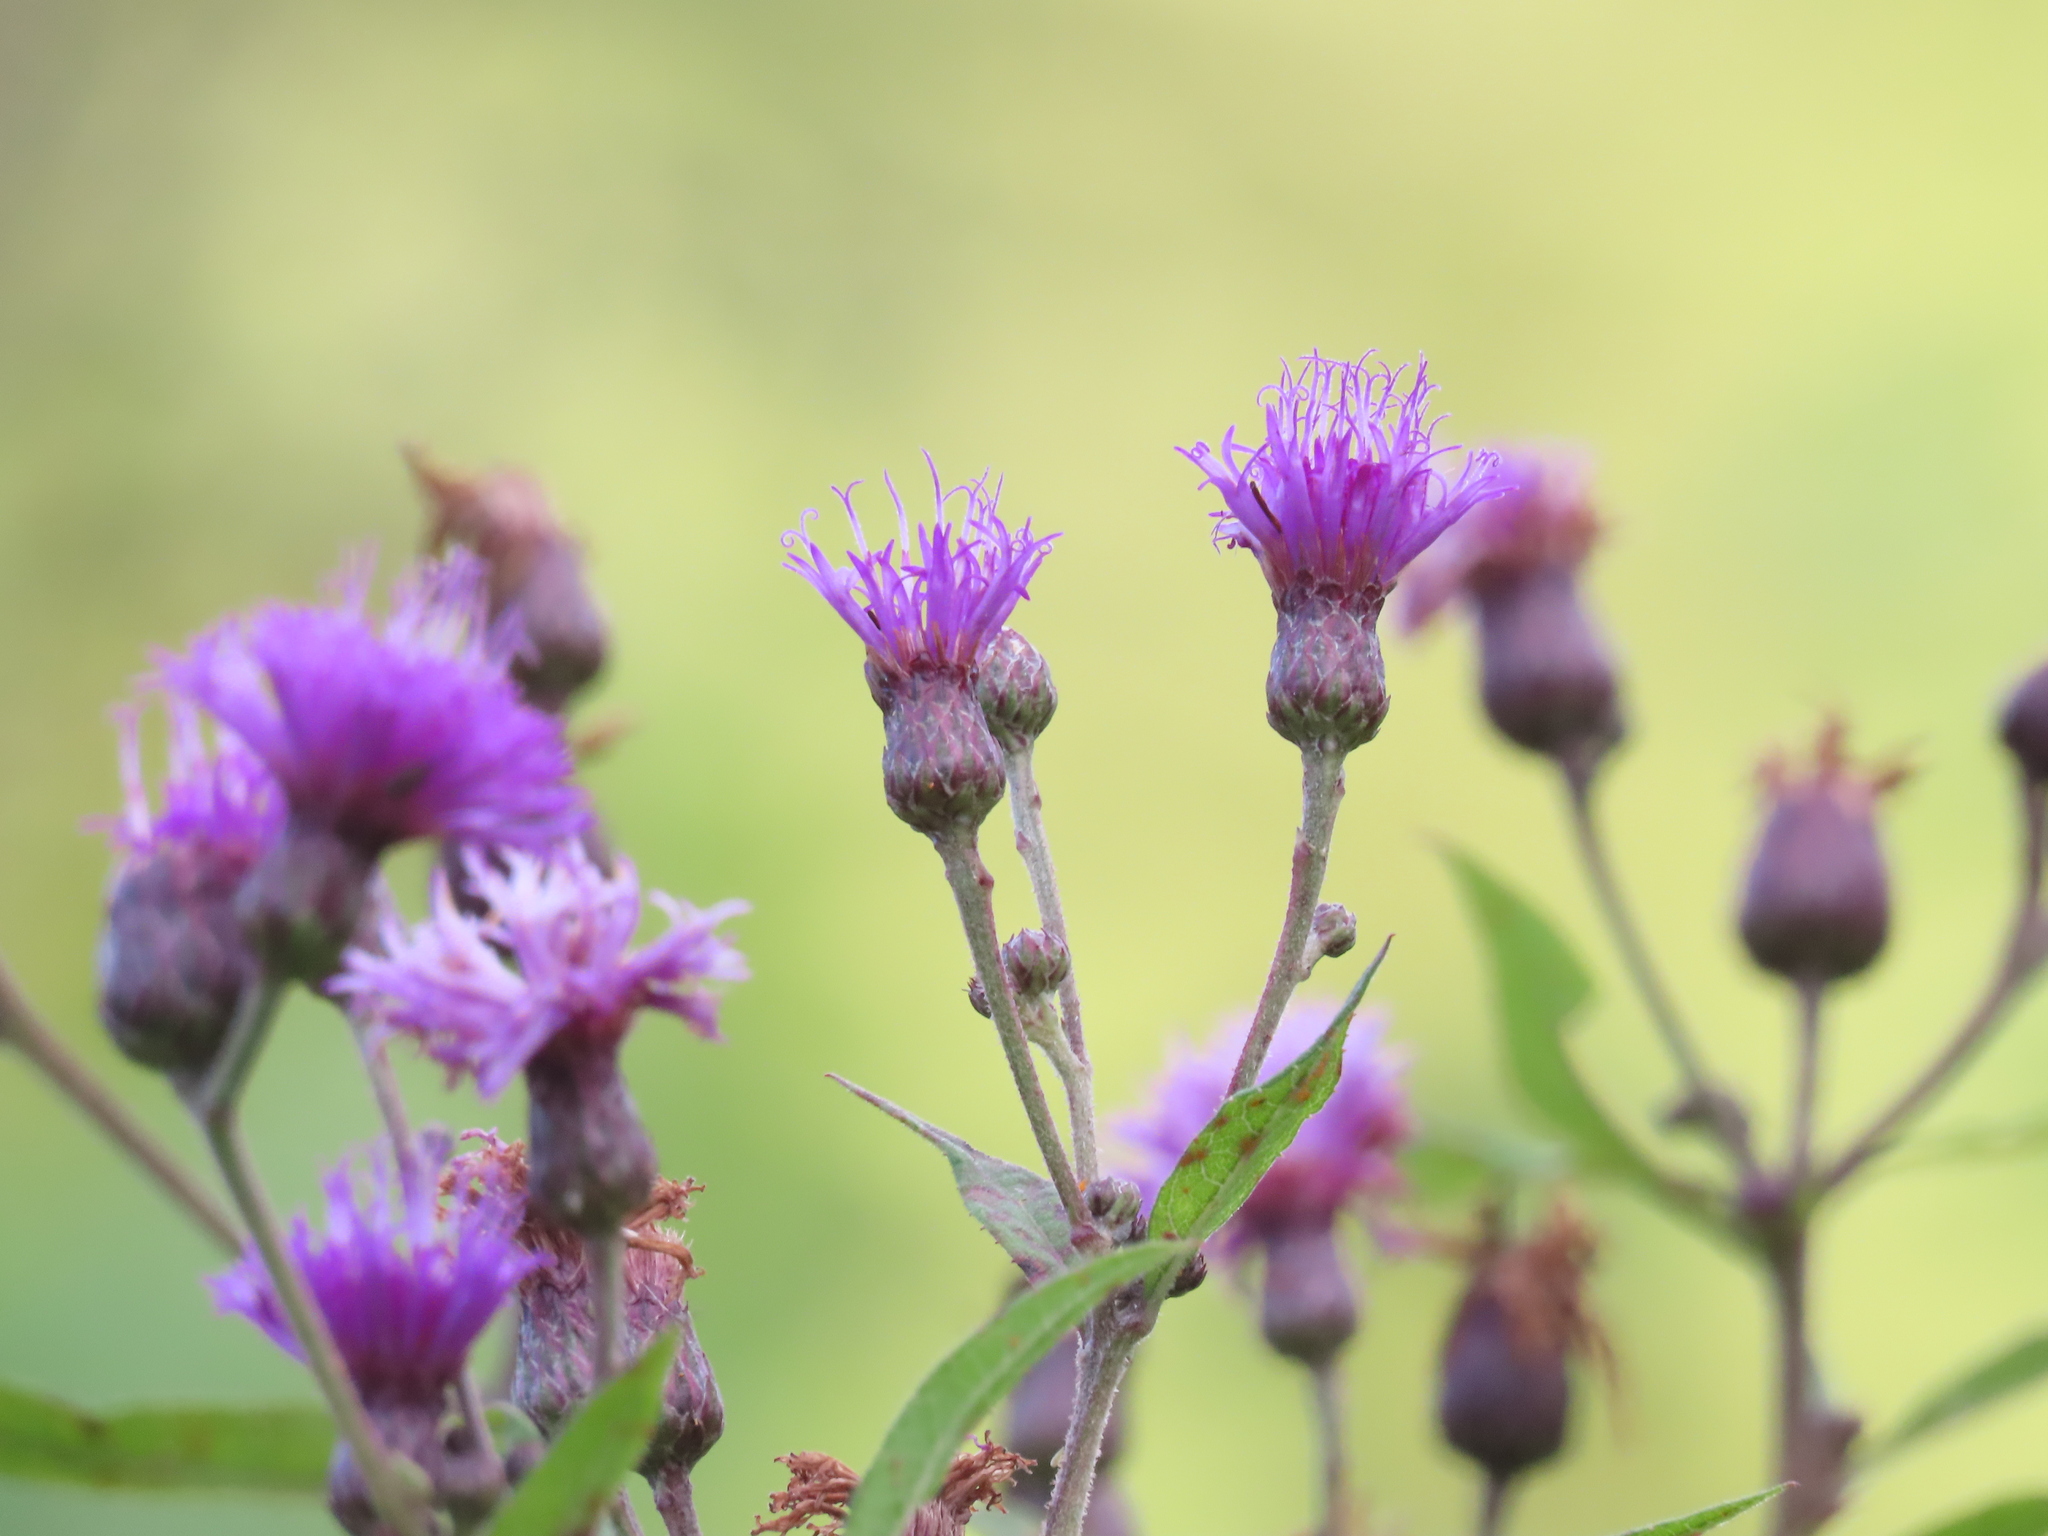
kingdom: Plantae
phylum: Tracheophyta
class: Magnoliopsida
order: Asterales
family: Asteraceae
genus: Vernonia
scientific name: Vernonia missurica
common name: Missouri ironweed
